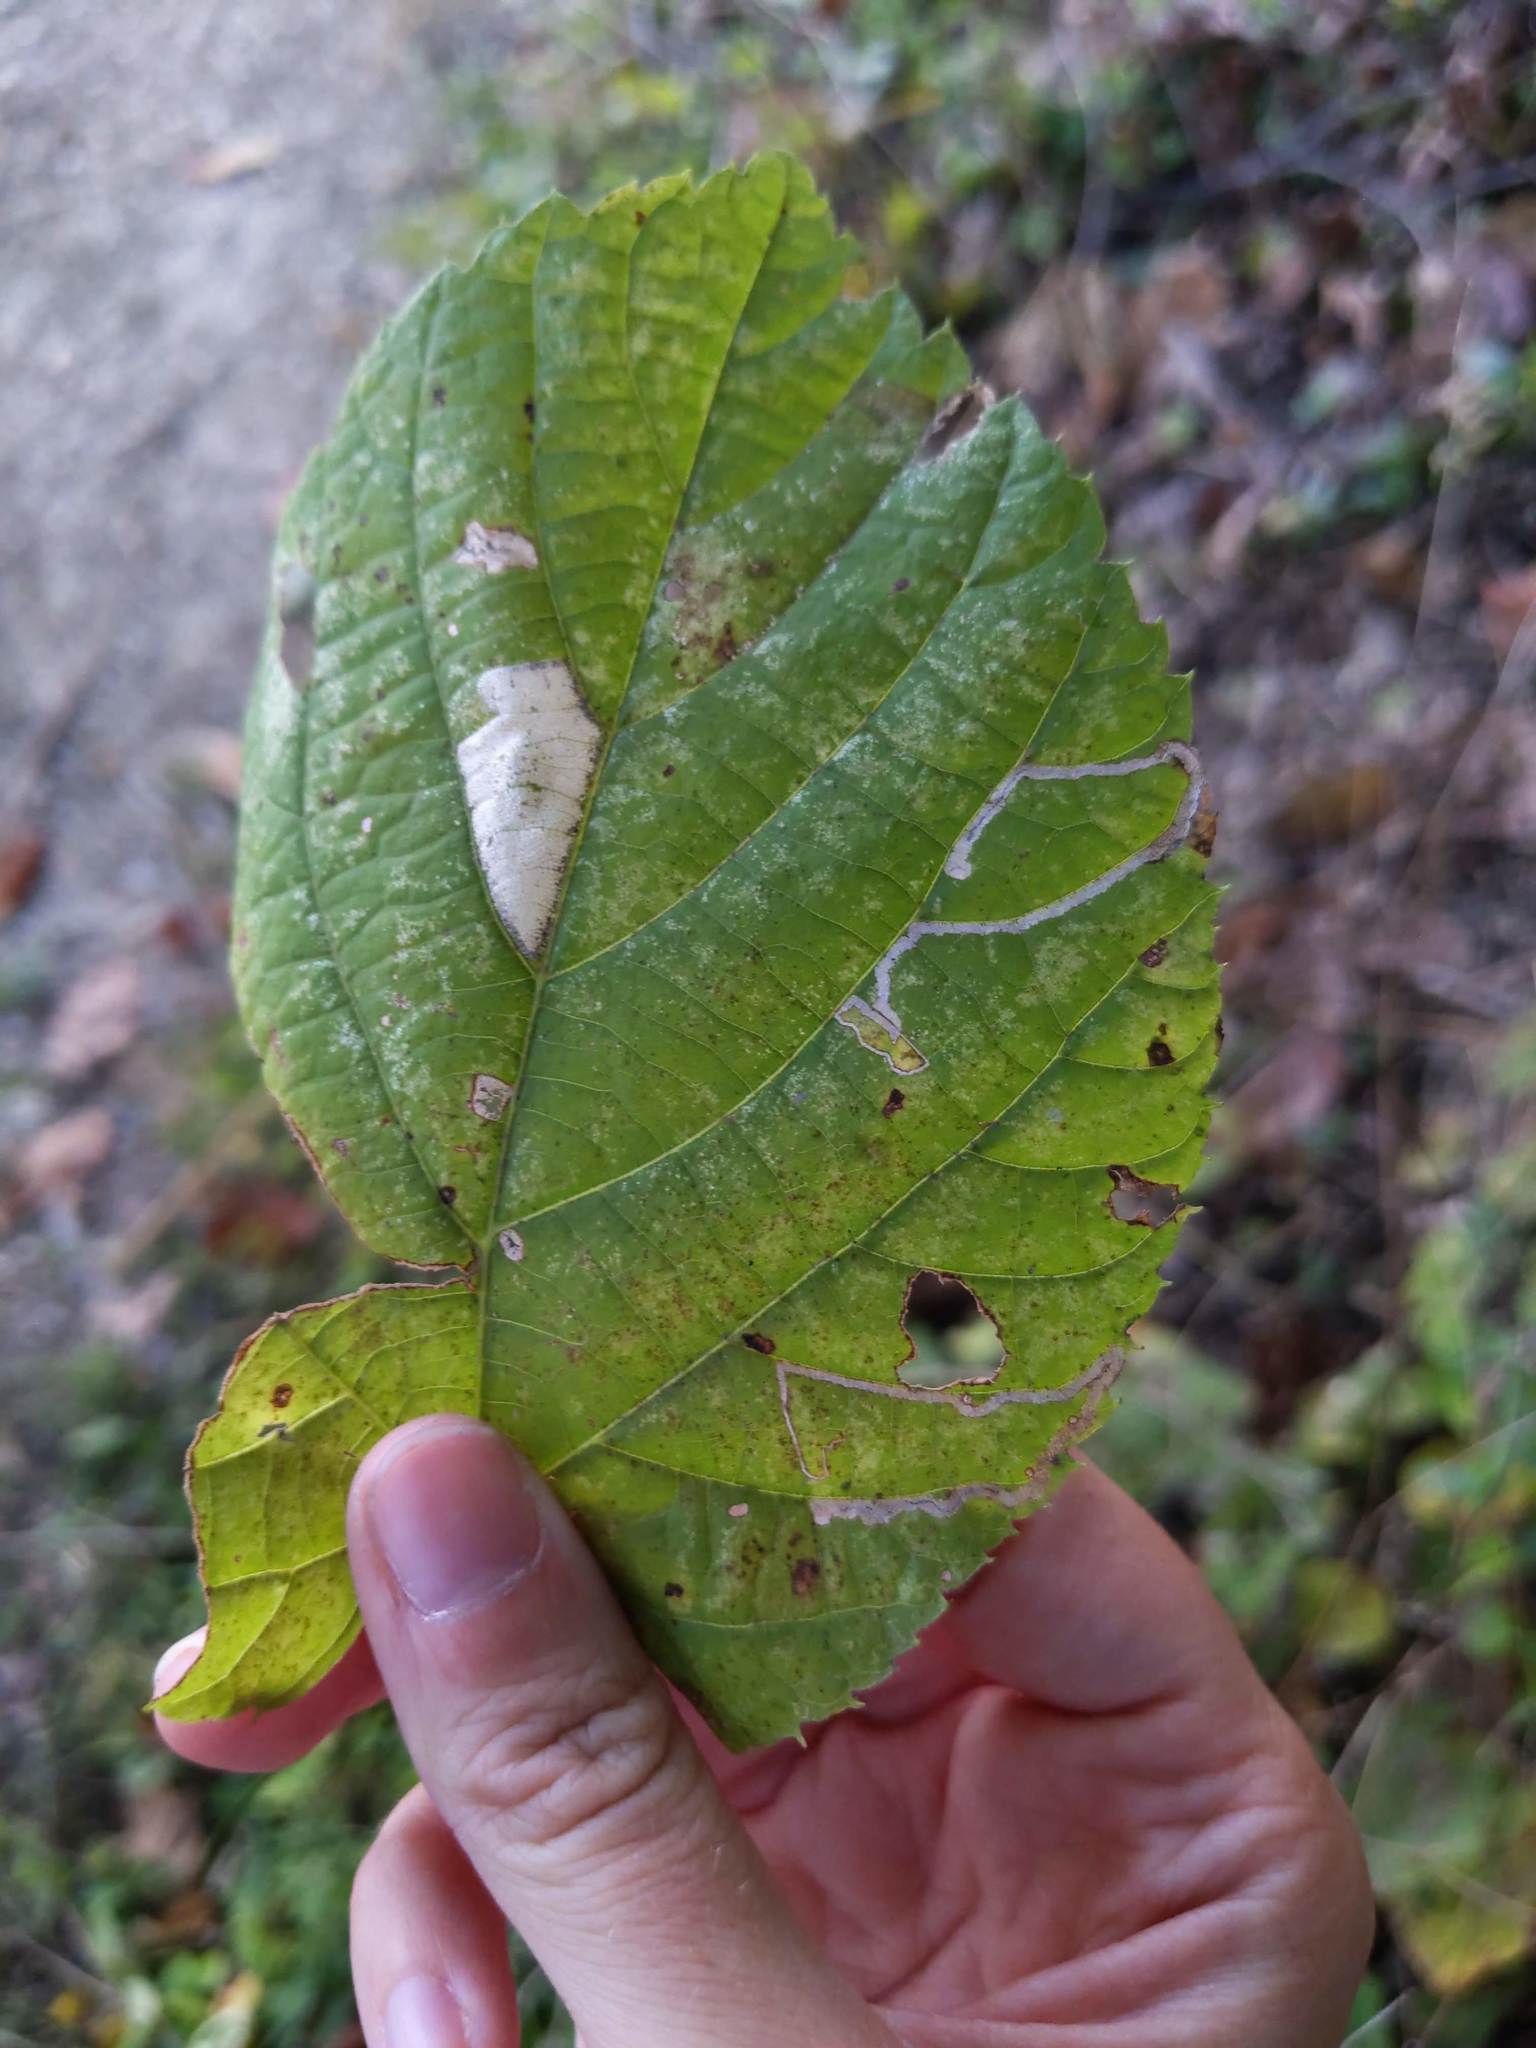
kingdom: Animalia
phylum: Arthropoda
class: Insecta
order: Lepidoptera
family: Gracillariidae
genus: Phyllonorycter
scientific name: Phyllonorycter lucetiella
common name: Basswood miner moth
